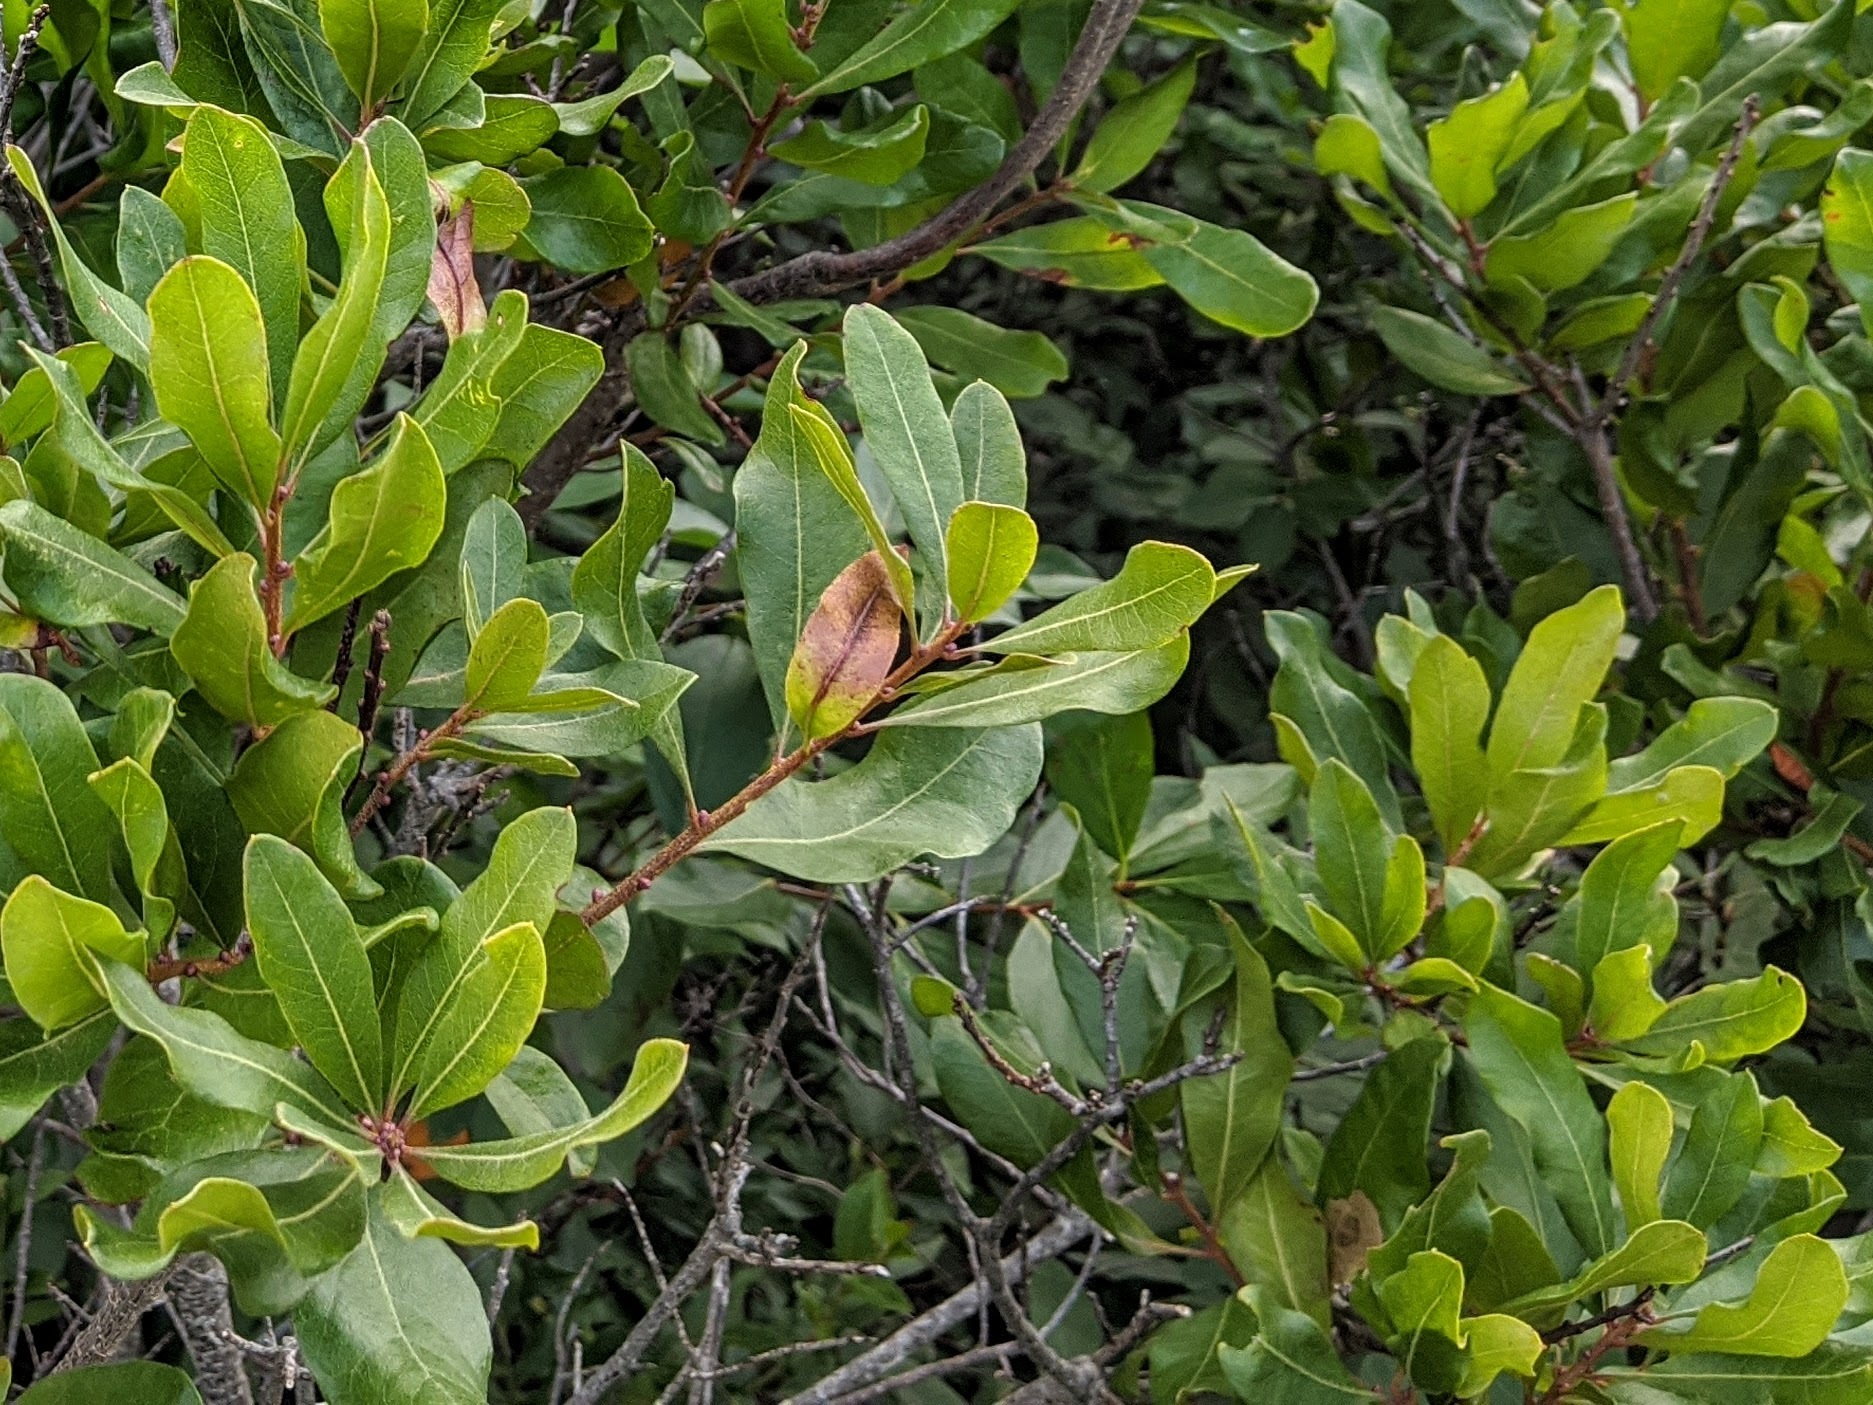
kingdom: Animalia
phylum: Arthropoda
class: Insecta
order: Lepidoptera
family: Gracillariidae
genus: Cameraria
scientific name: Cameraria picturatella
